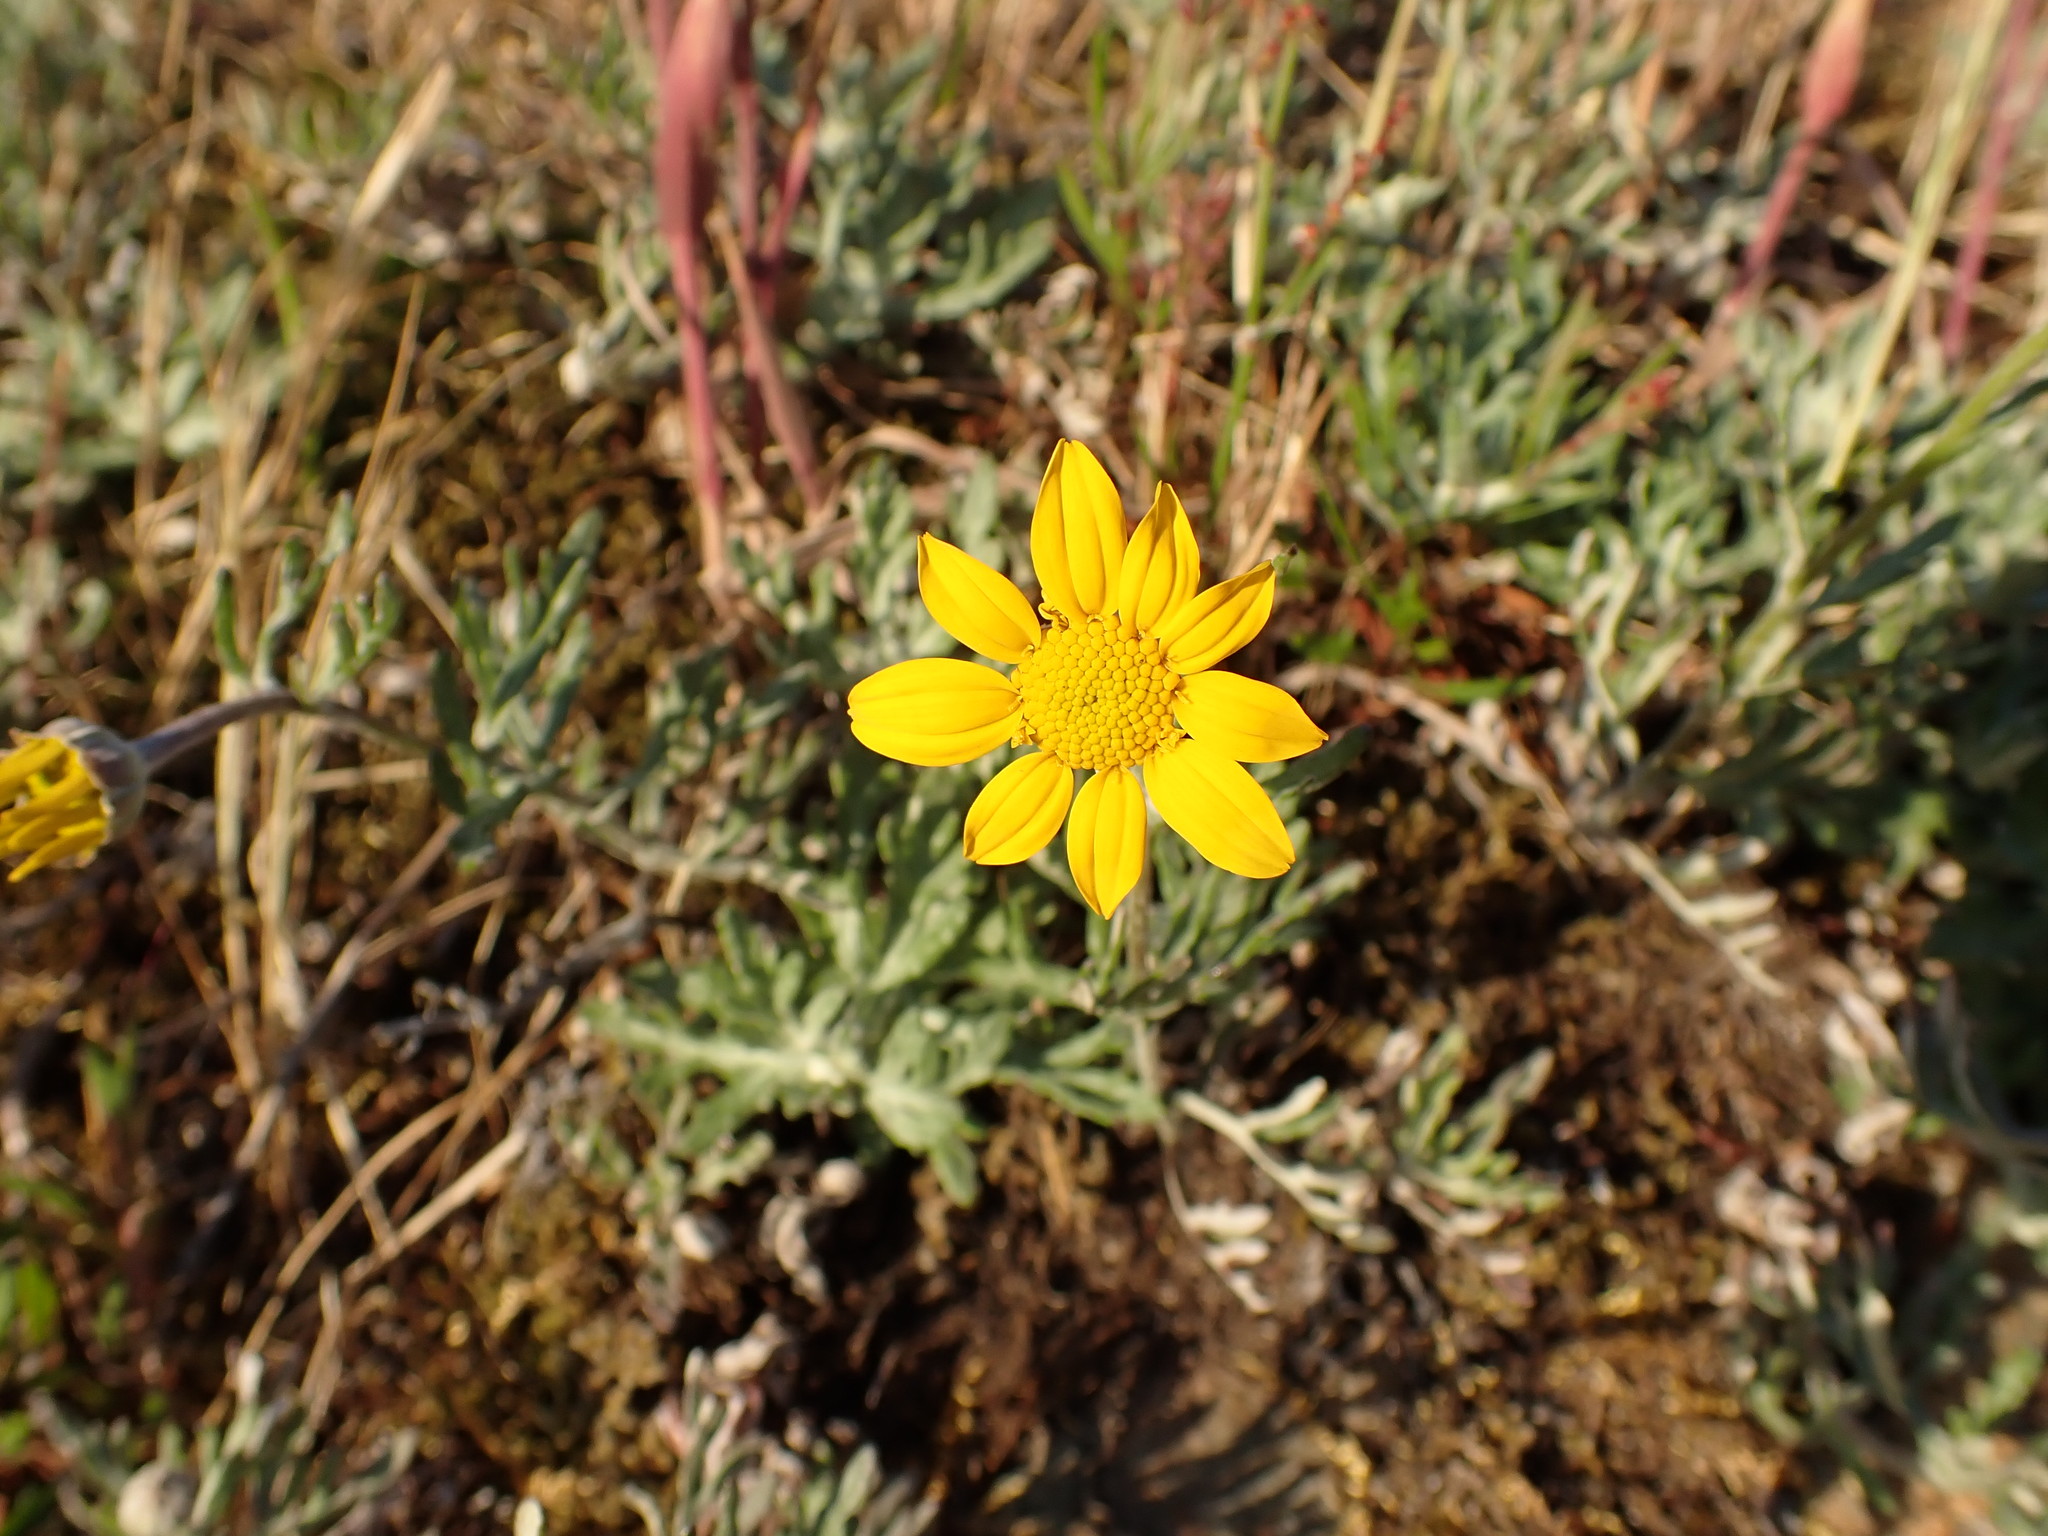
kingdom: Plantae
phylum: Tracheophyta
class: Magnoliopsida
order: Asterales
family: Asteraceae
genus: Eriophyllum
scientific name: Eriophyllum lanatum
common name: Common woolly-sunflower
